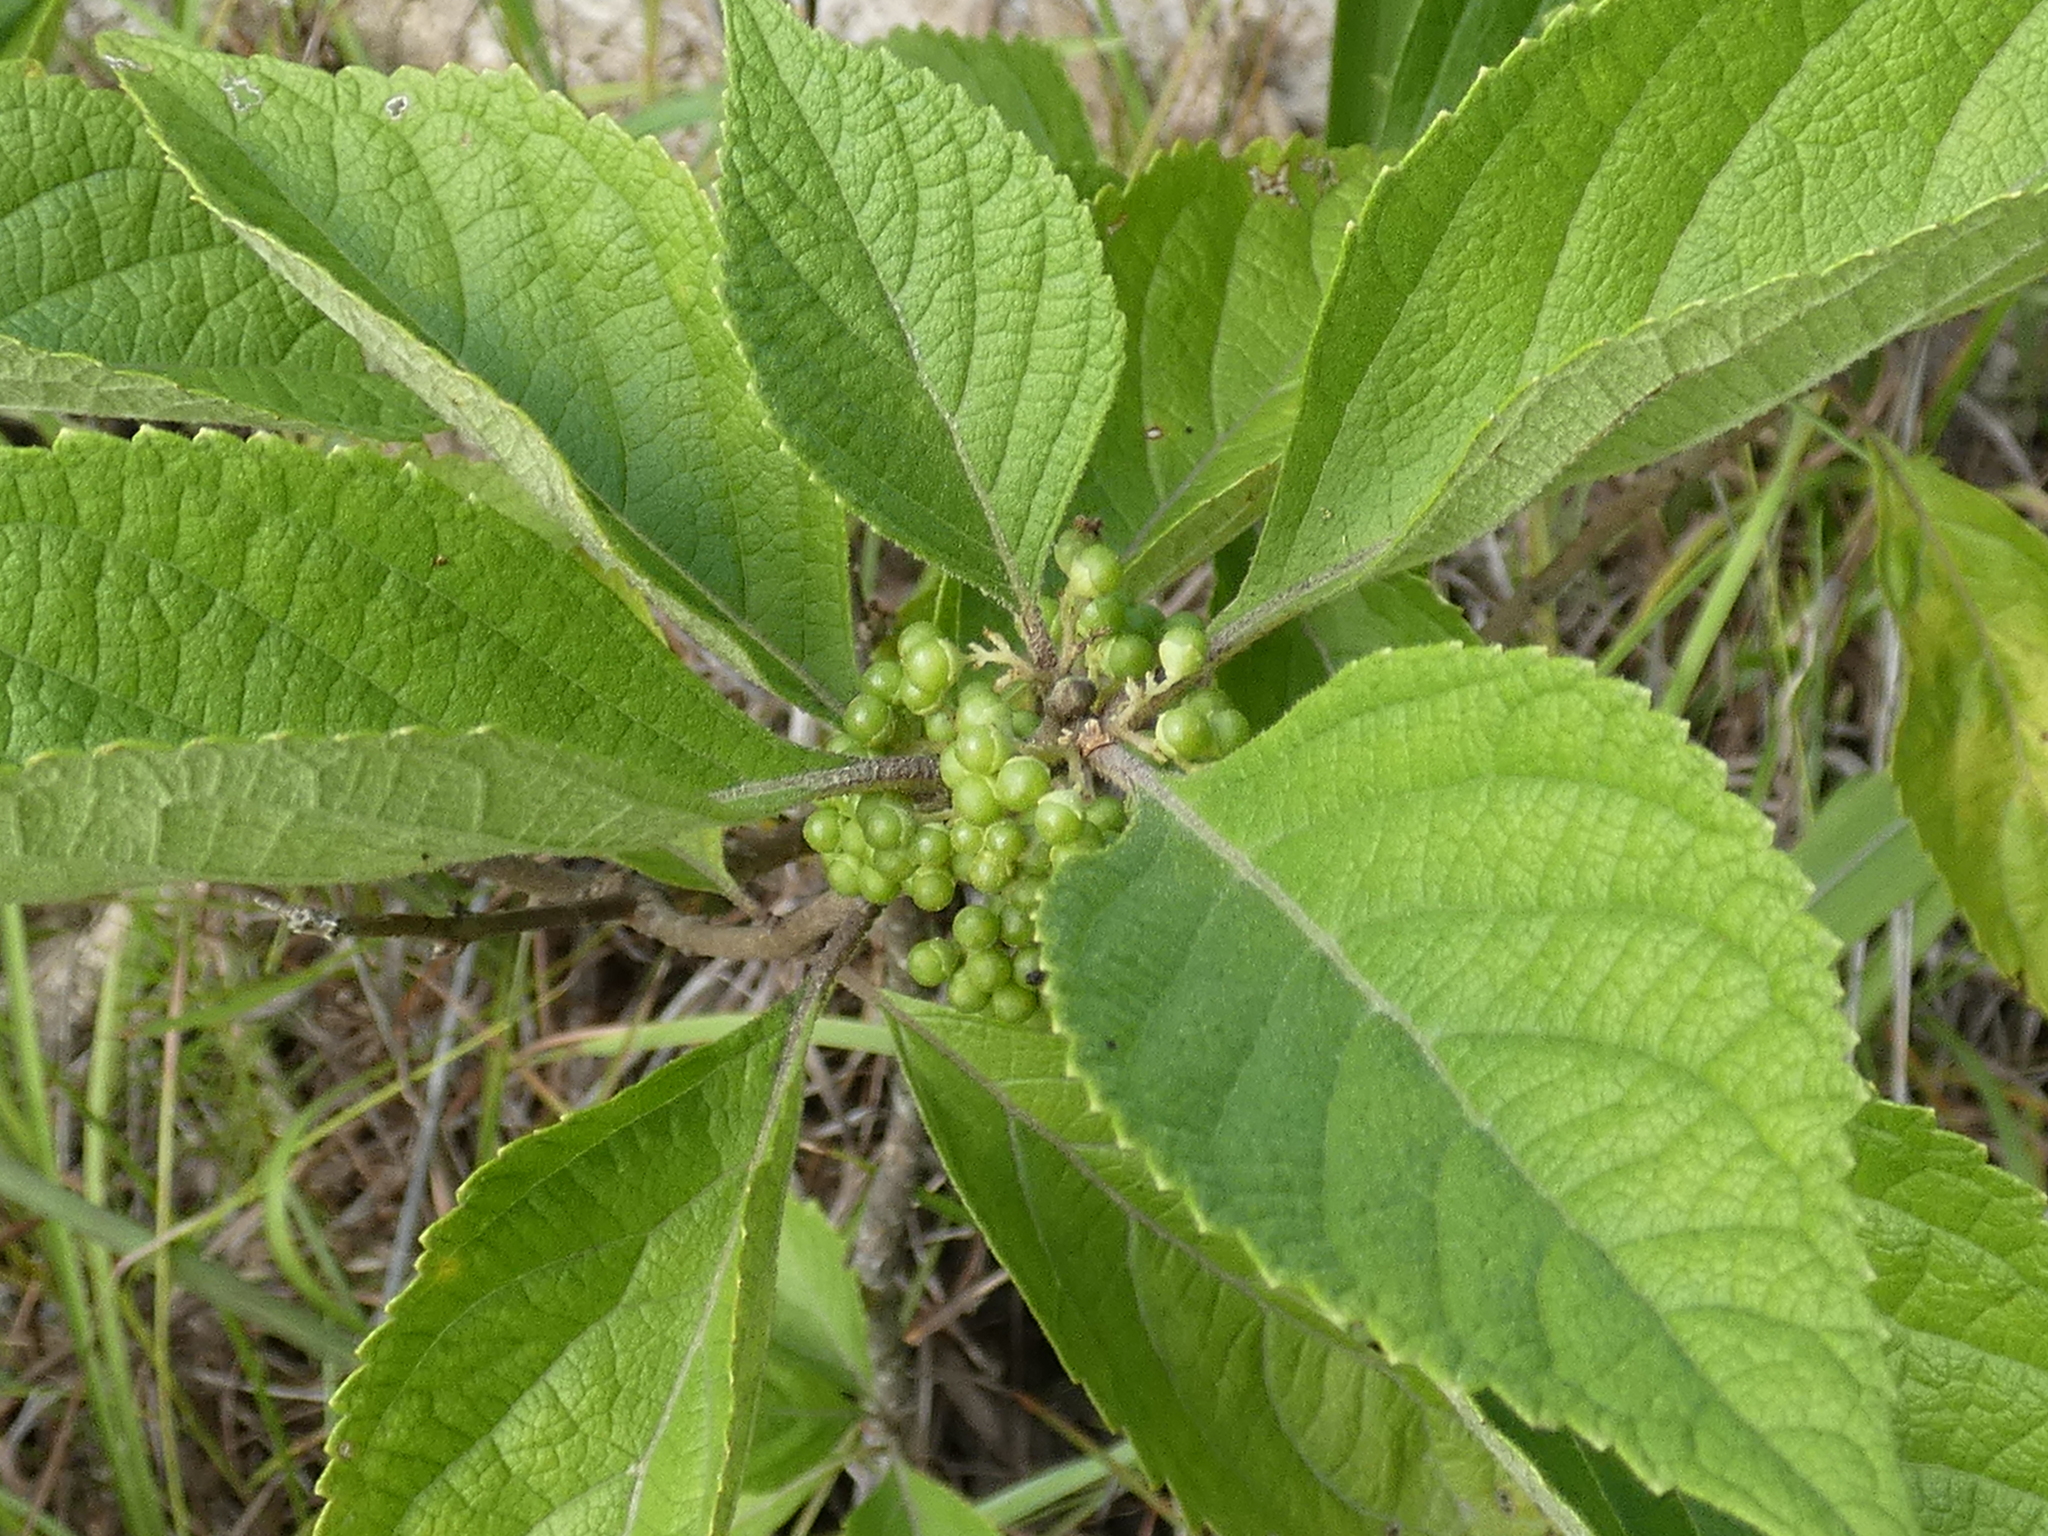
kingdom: Plantae
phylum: Tracheophyta
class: Magnoliopsida
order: Lamiales
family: Lamiaceae
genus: Callicarpa
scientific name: Callicarpa americana
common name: American beautyberry
